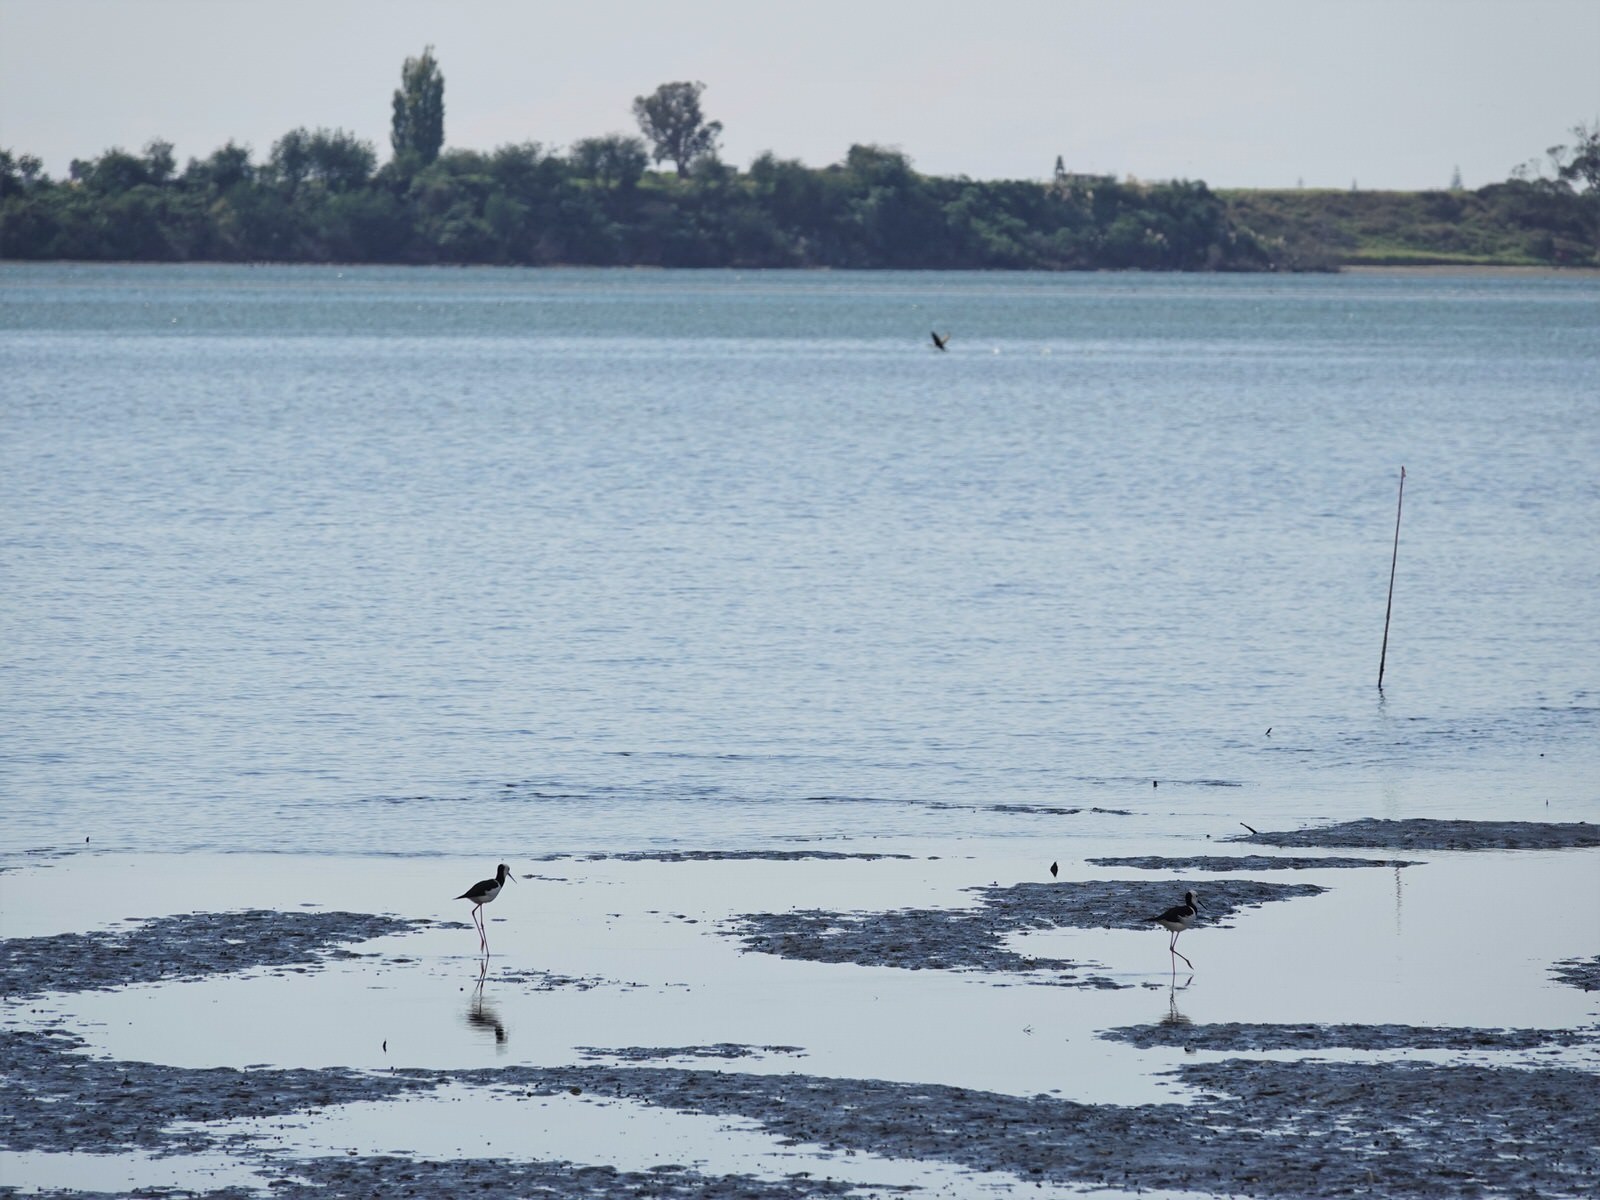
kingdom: Animalia
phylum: Chordata
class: Aves
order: Charadriiformes
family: Recurvirostridae
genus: Himantopus
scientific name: Himantopus leucocephalus
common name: White-headed stilt
